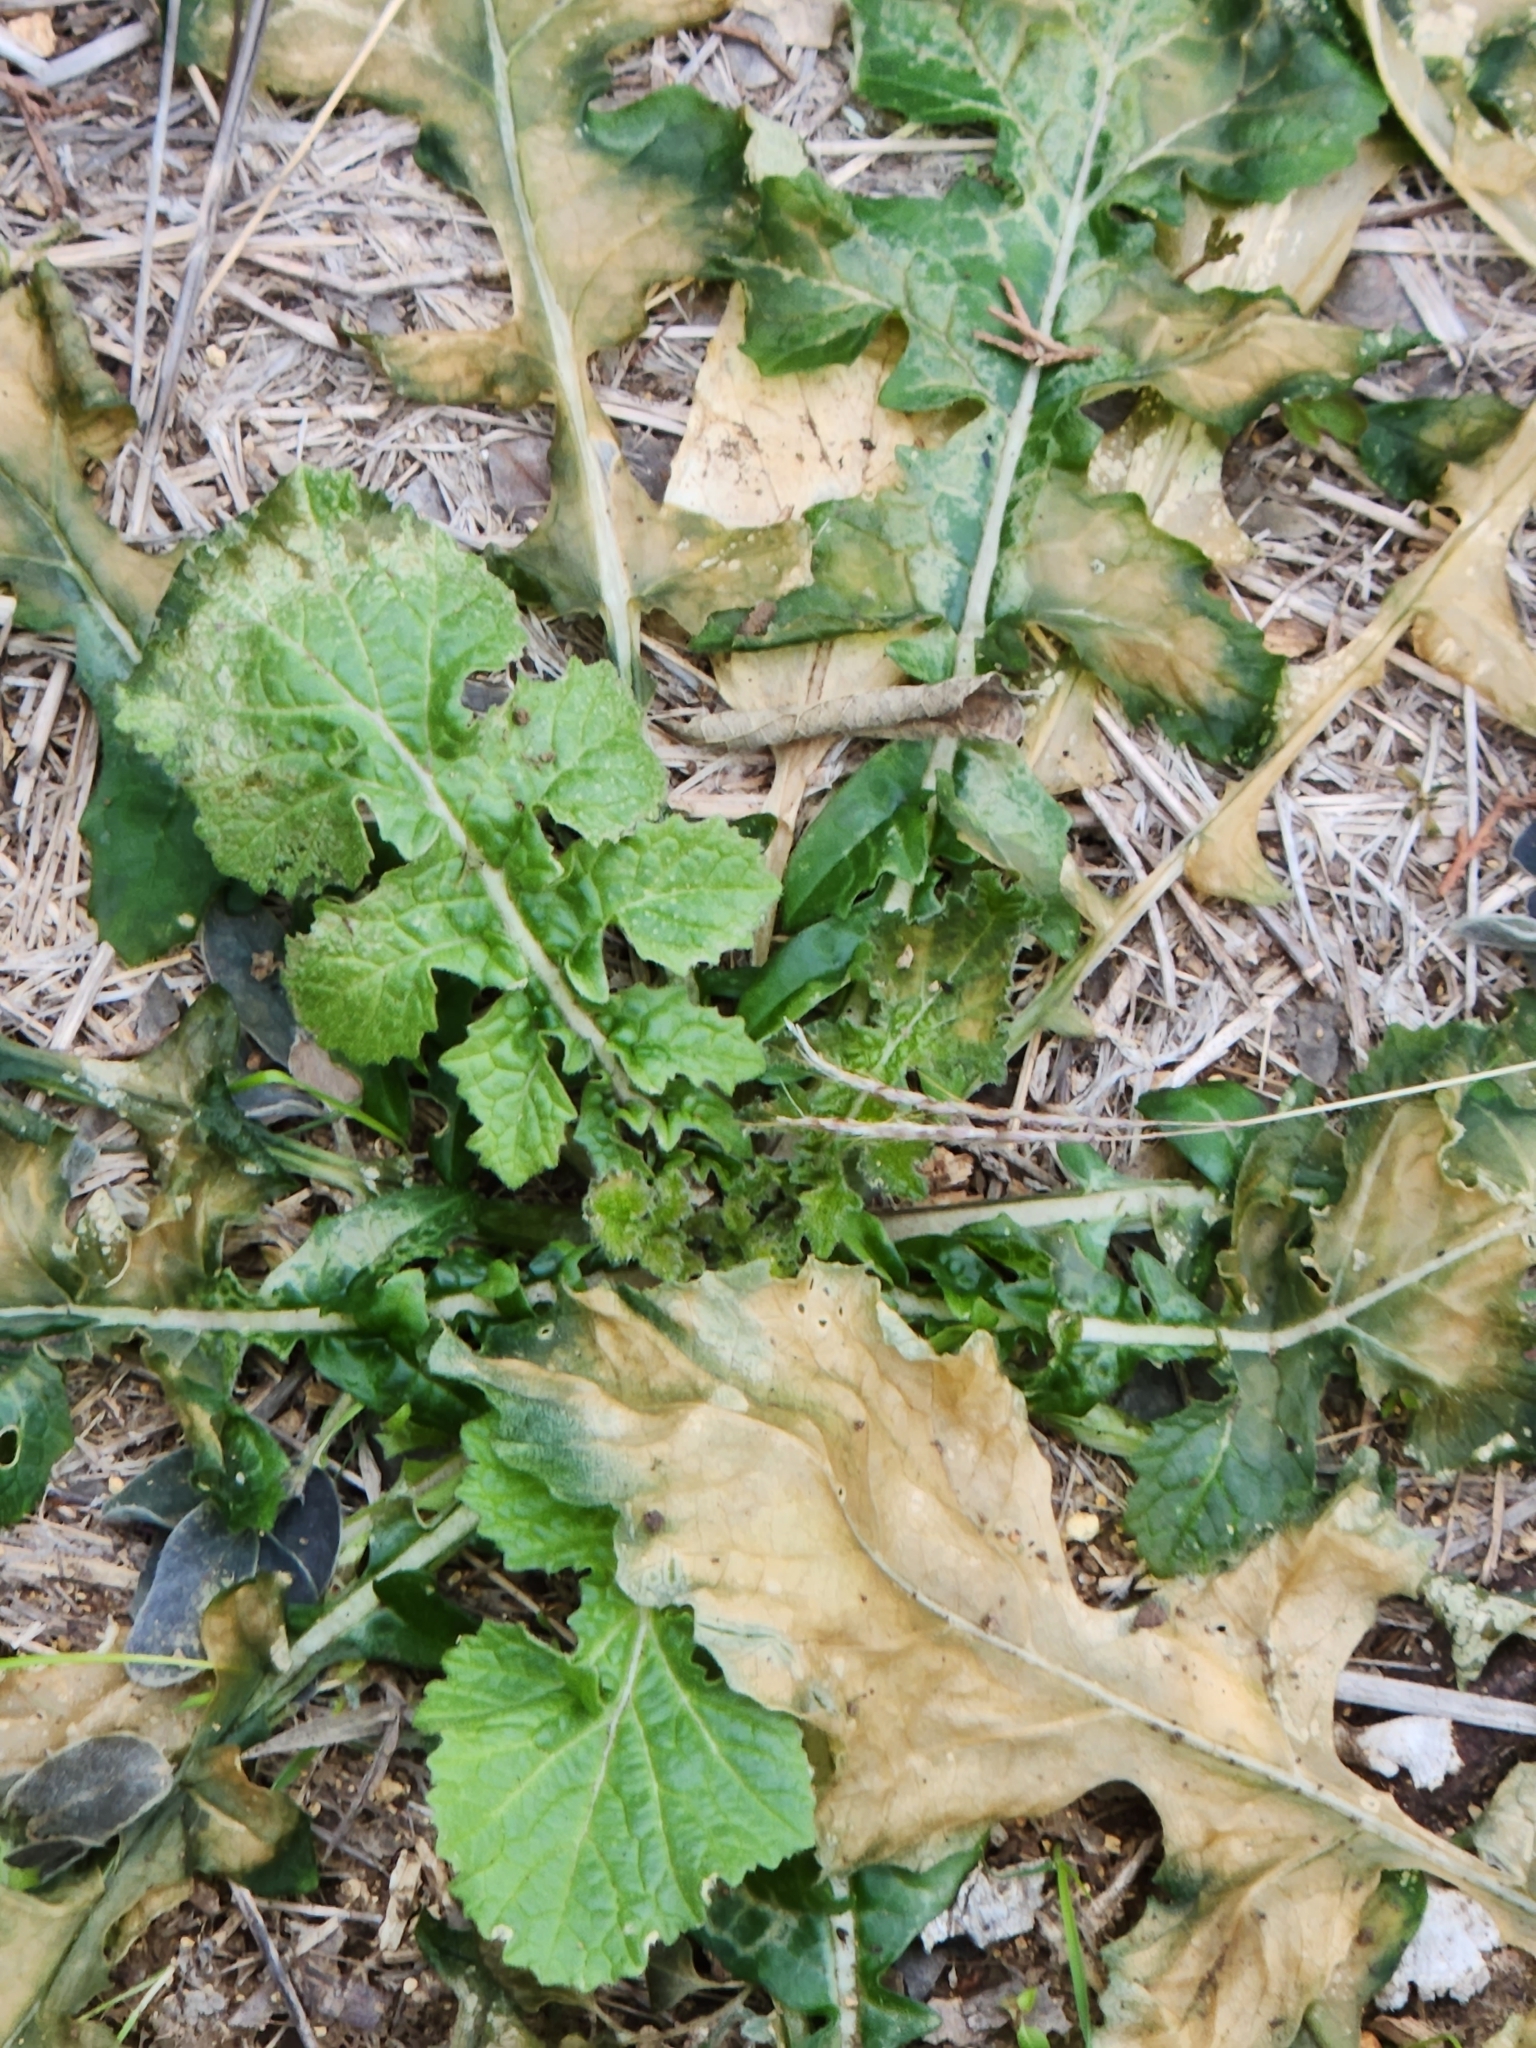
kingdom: Plantae
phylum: Tracheophyta
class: Magnoliopsida
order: Brassicales
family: Brassicaceae
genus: Rapistrum
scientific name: Rapistrum rugosum
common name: Annual bastardcabbage
